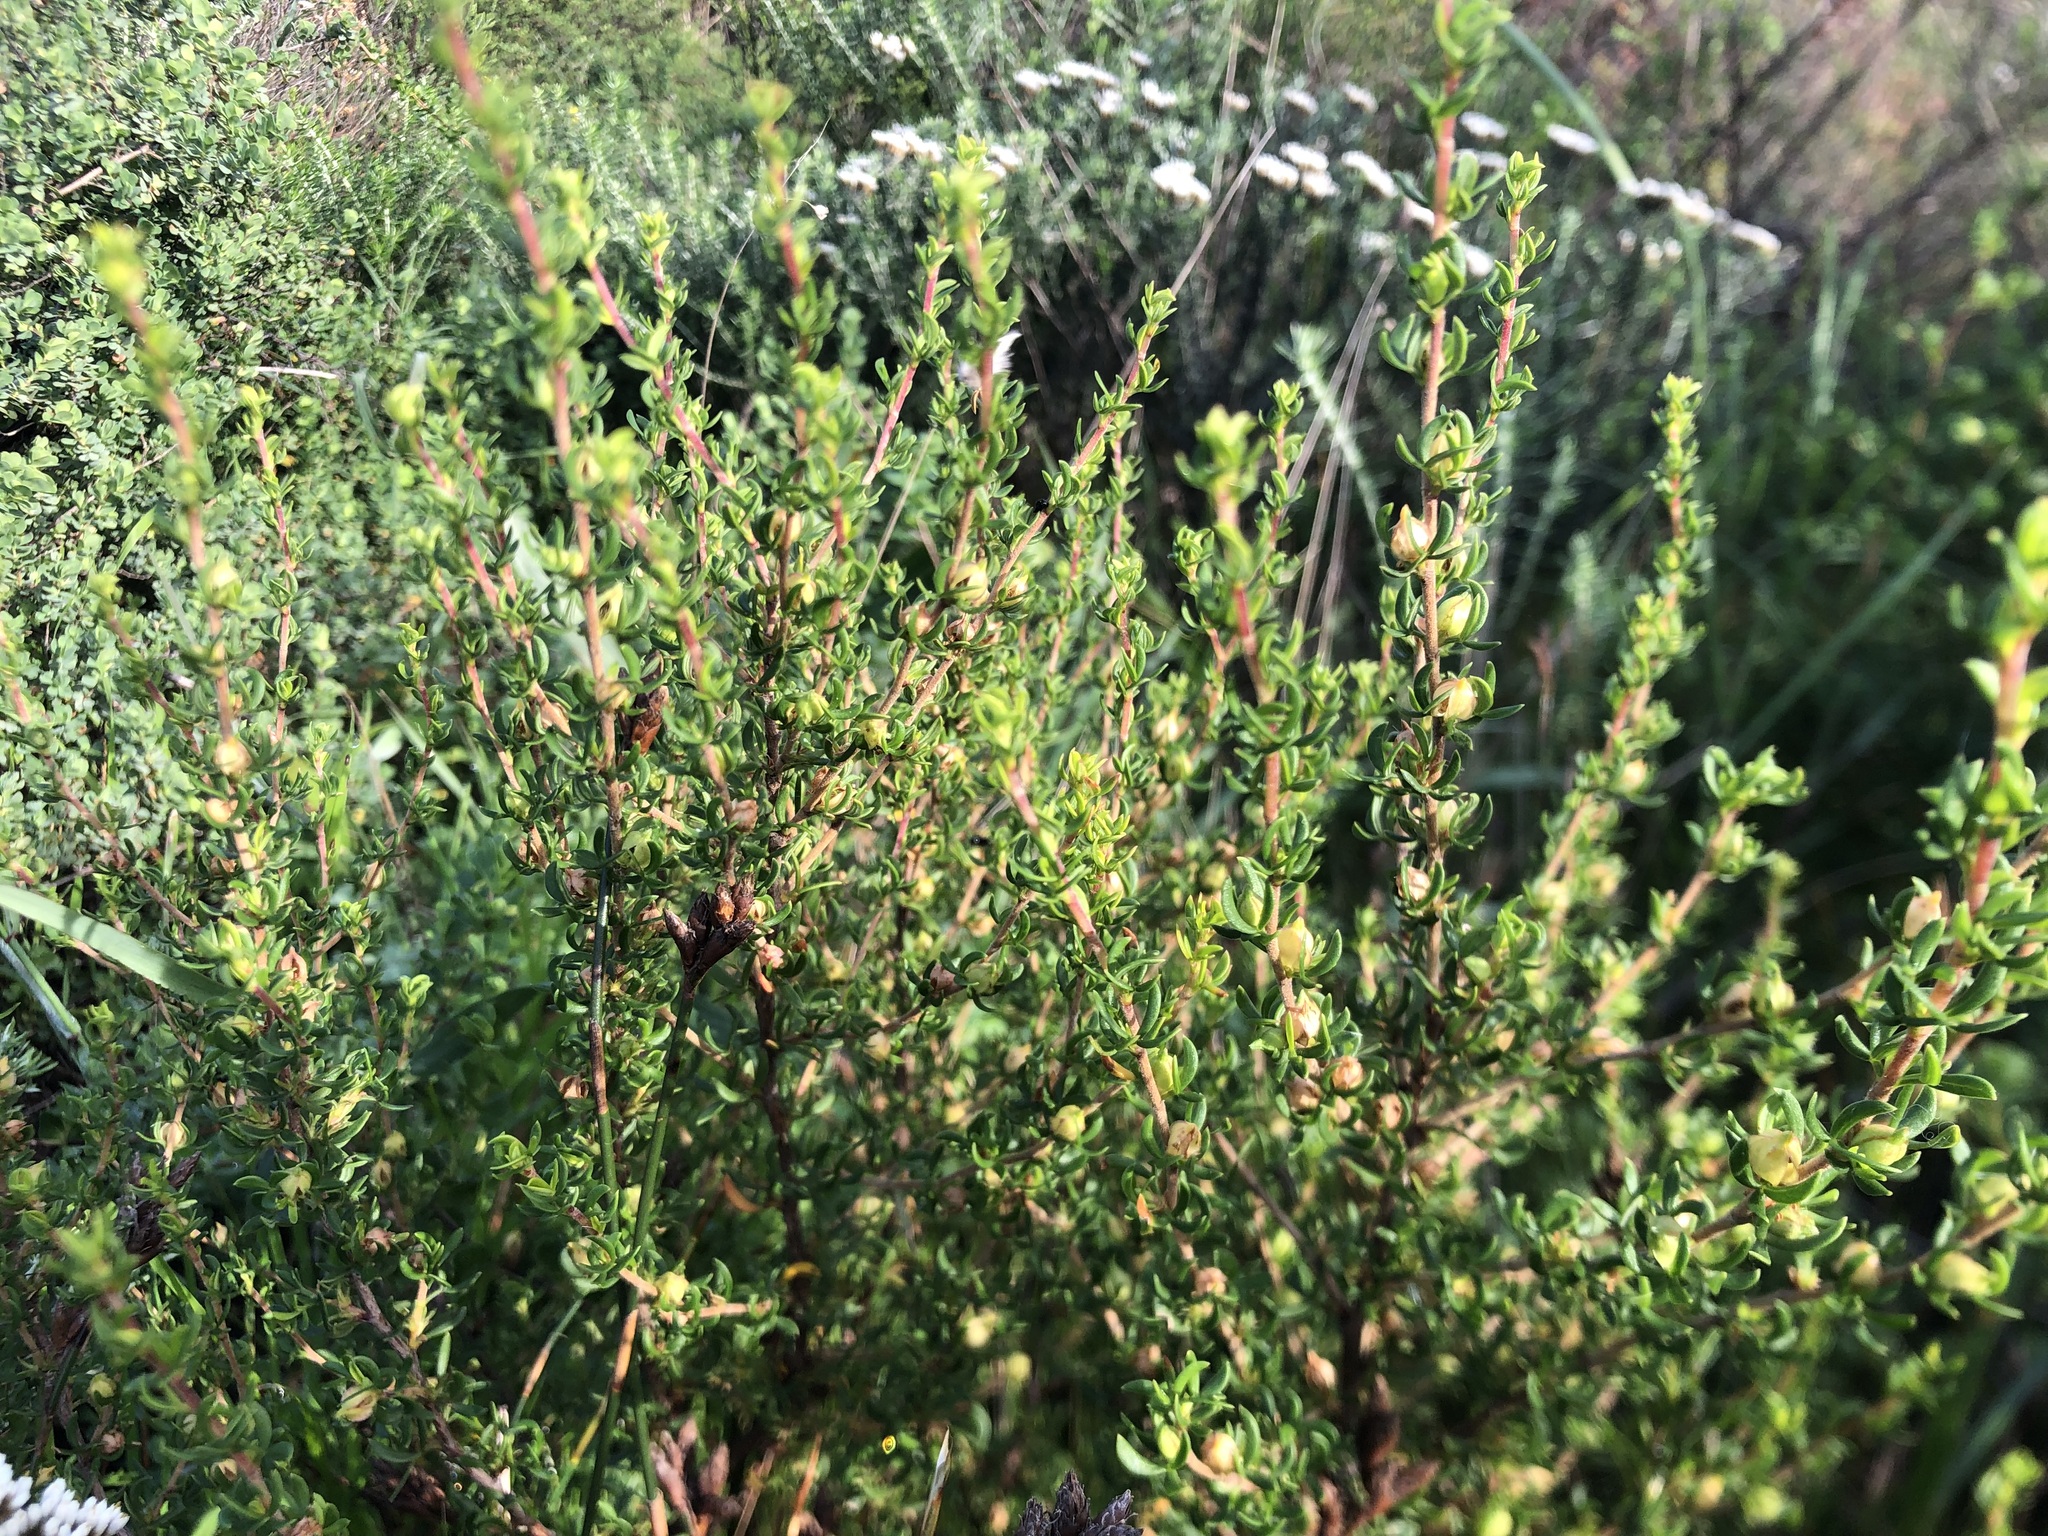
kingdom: Plantae
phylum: Tracheophyta
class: Magnoliopsida
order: Rosales
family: Rosaceae
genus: Cliffortia
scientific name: Cliffortia falcata
